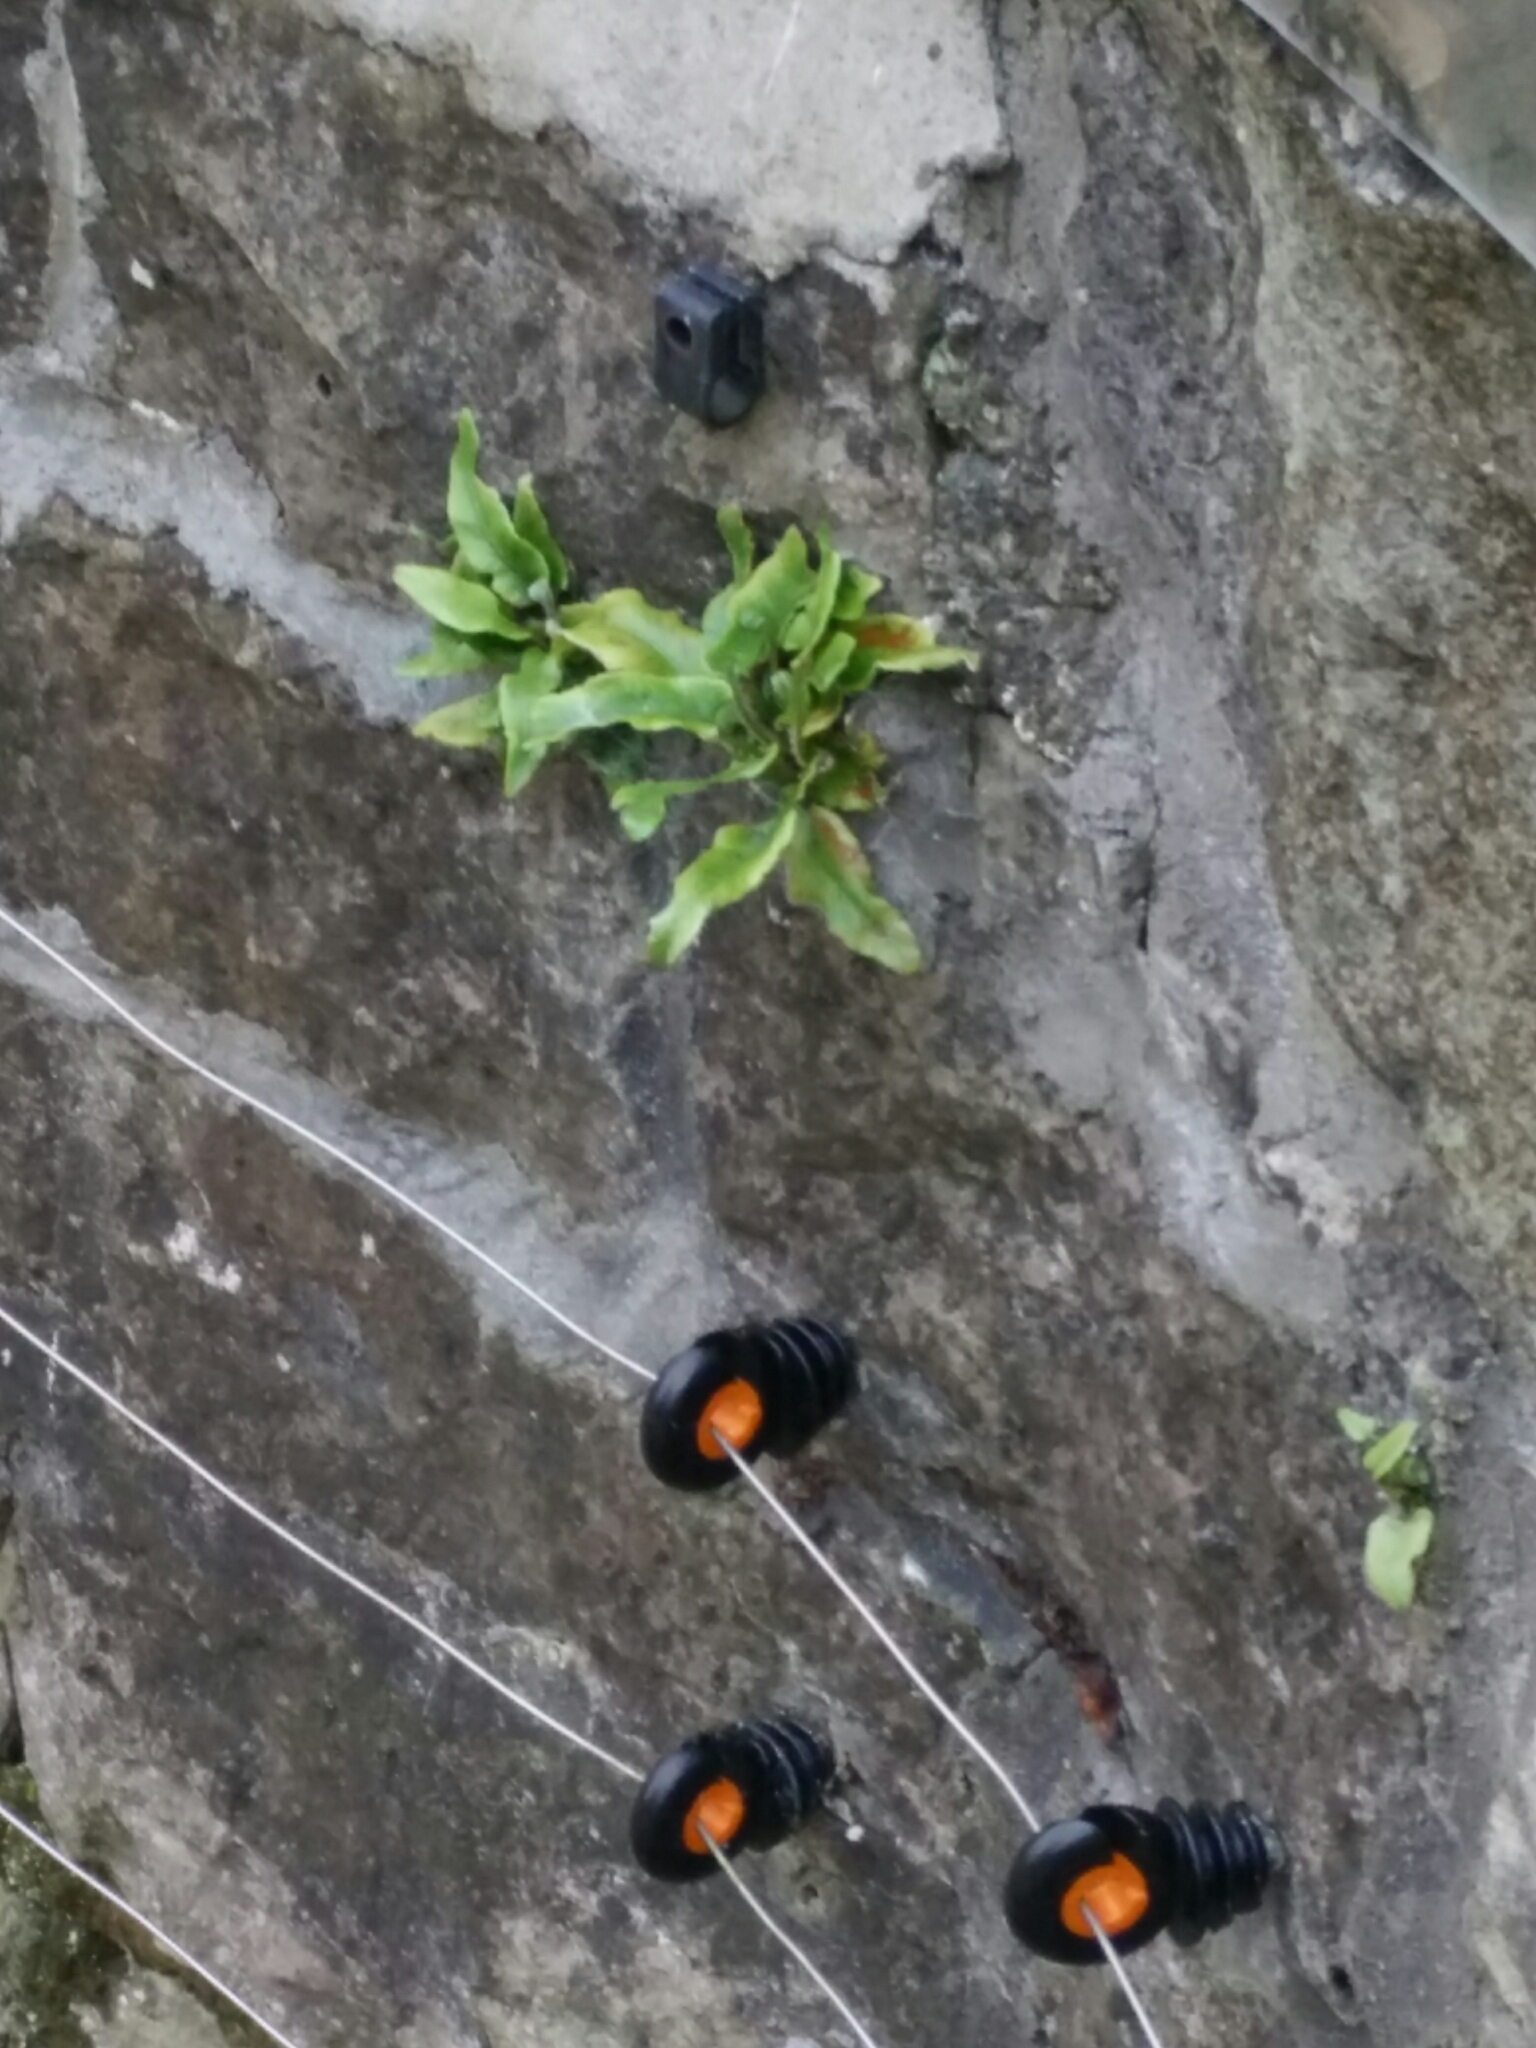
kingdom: Plantae
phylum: Tracheophyta
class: Polypodiopsida
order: Polypodiales
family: Aspleniaceae
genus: Asplenium
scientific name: Asplenium scolopendrium
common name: Hart's-tongue fern
